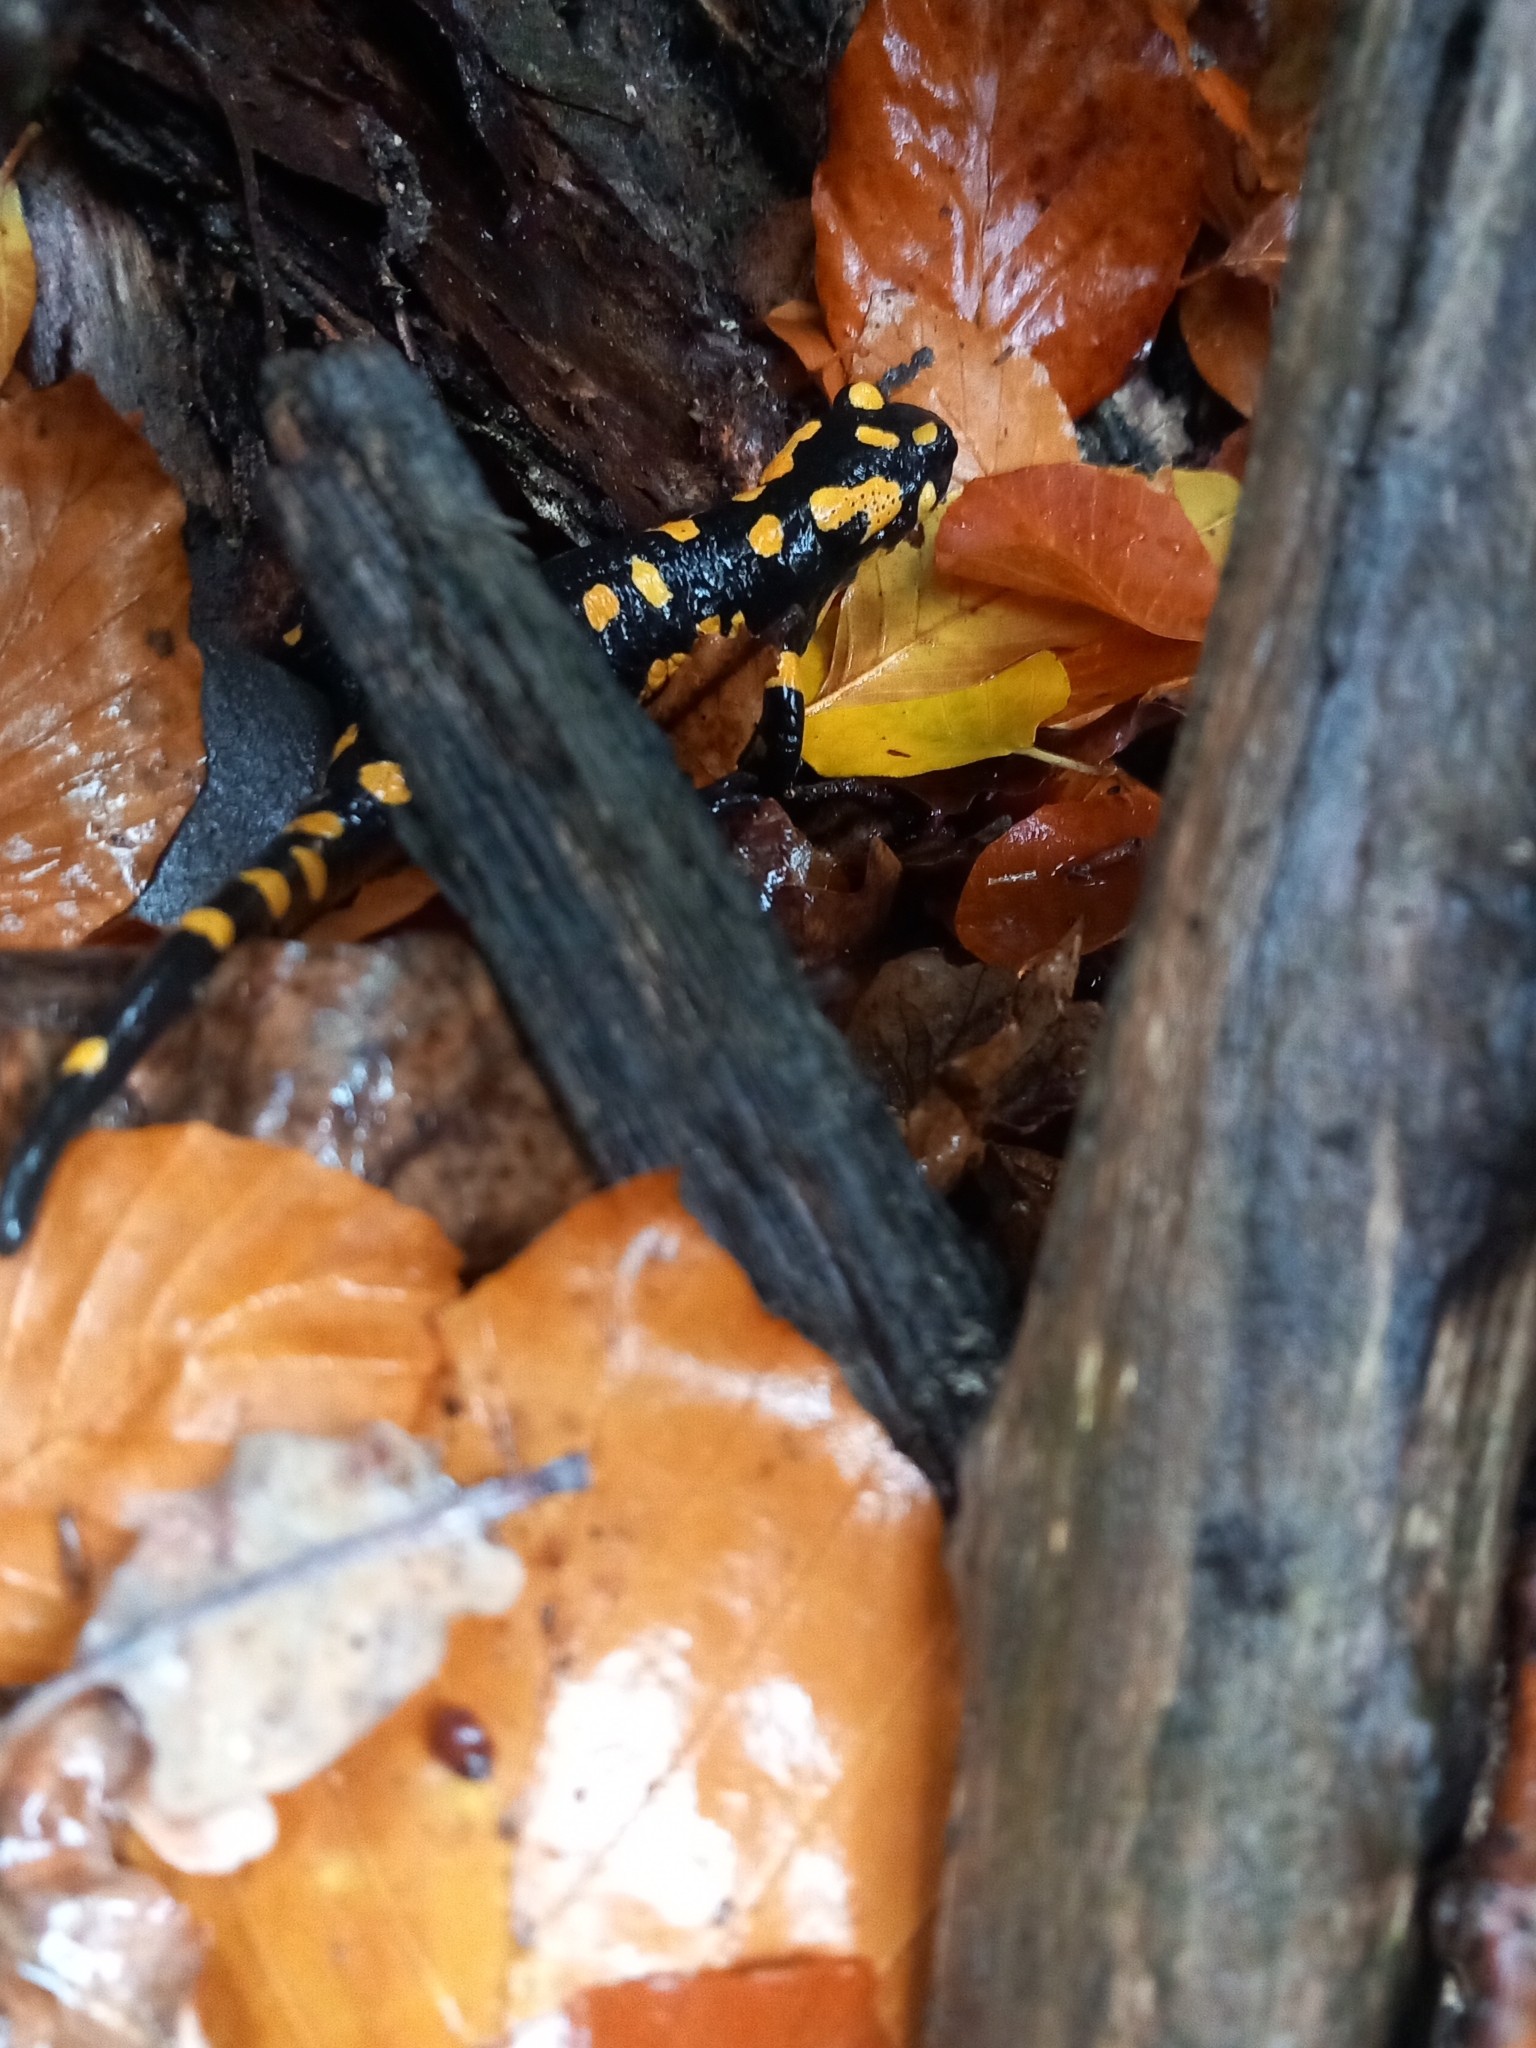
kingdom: Animalia
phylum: Chordata
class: Amphibia
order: Caudata
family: Salamandridae
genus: Salamandra
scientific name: Salamandra salamandra
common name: Fire salamander
